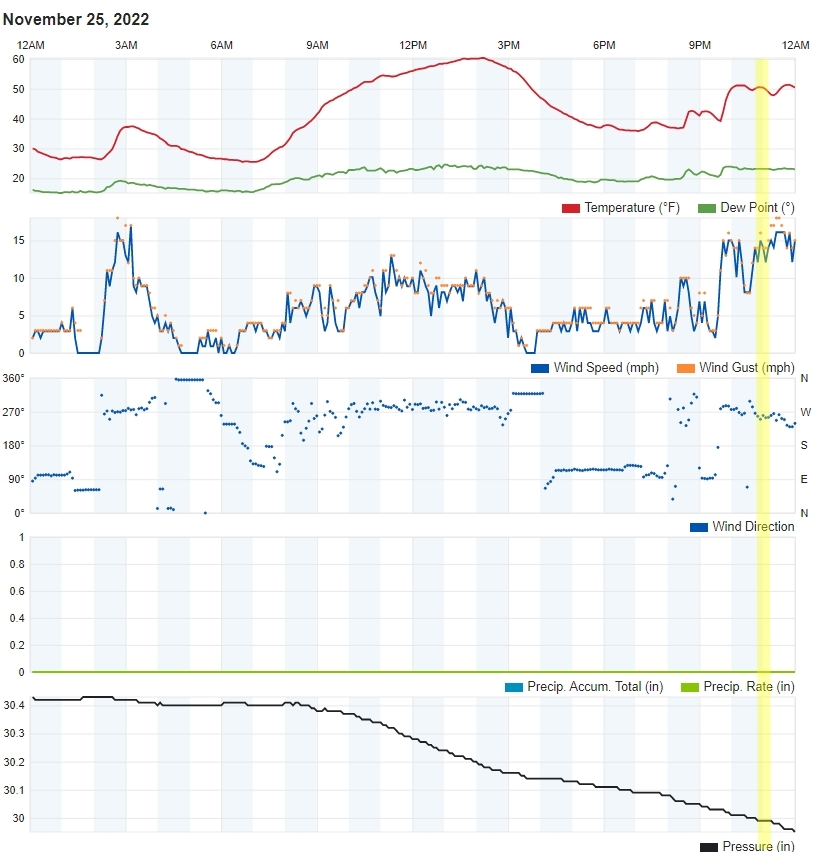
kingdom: Animalia
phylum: Chordata
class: Mammalia
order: Carnivora
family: Felidae
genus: Puma
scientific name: Puma concolor
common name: Puma
